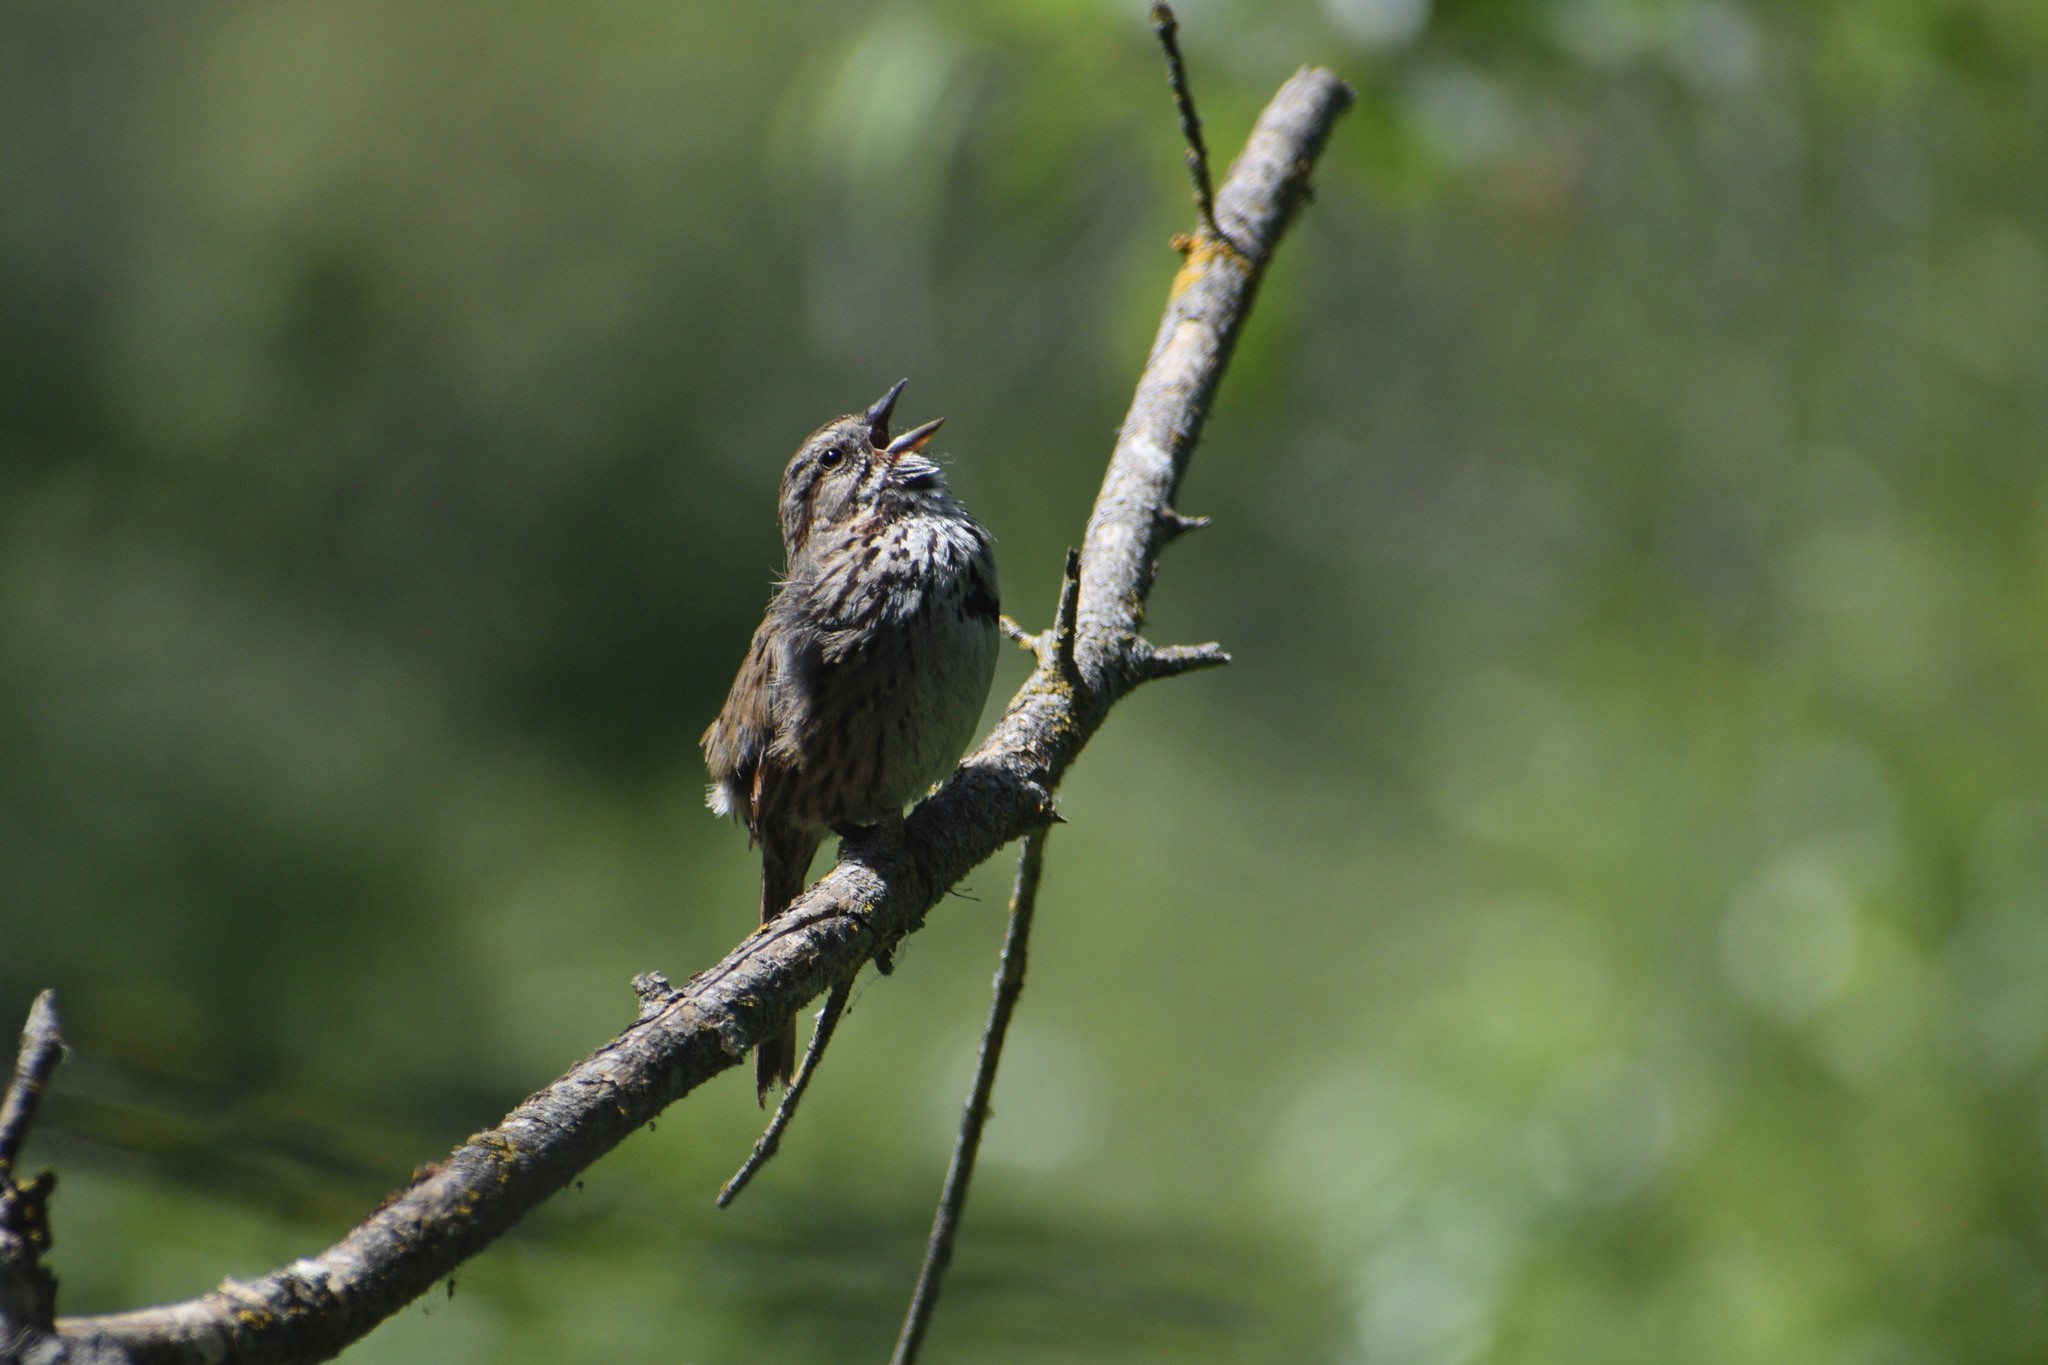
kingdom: Animalia
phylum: Chordata
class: Aves
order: Passeriformes
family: Passerellidae
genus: Melospiza
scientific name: Melospiza melodia
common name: Song sparrow
